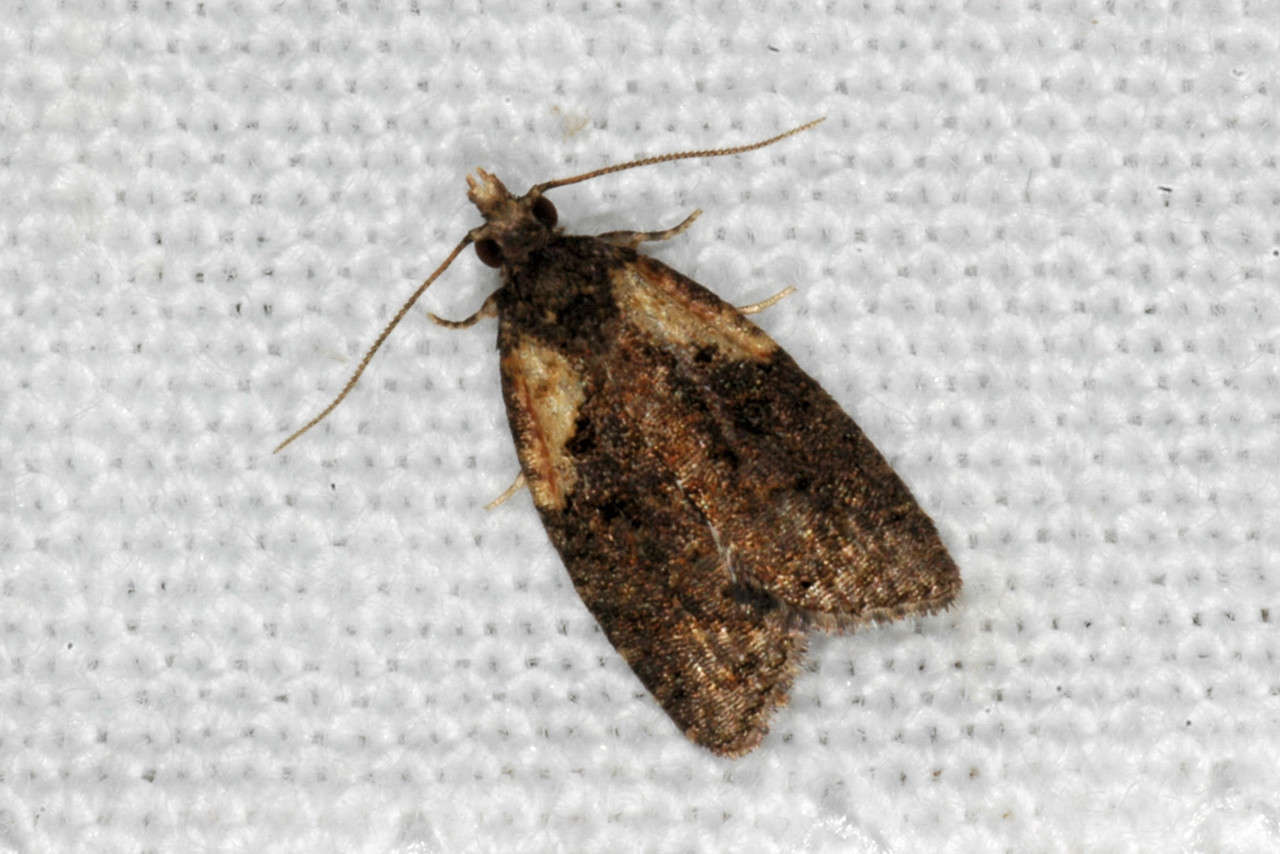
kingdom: Animalia
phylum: Arthropoda
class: Insecta
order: Lepidoptera
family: Tortricidae
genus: Capua
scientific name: Capua intractana
